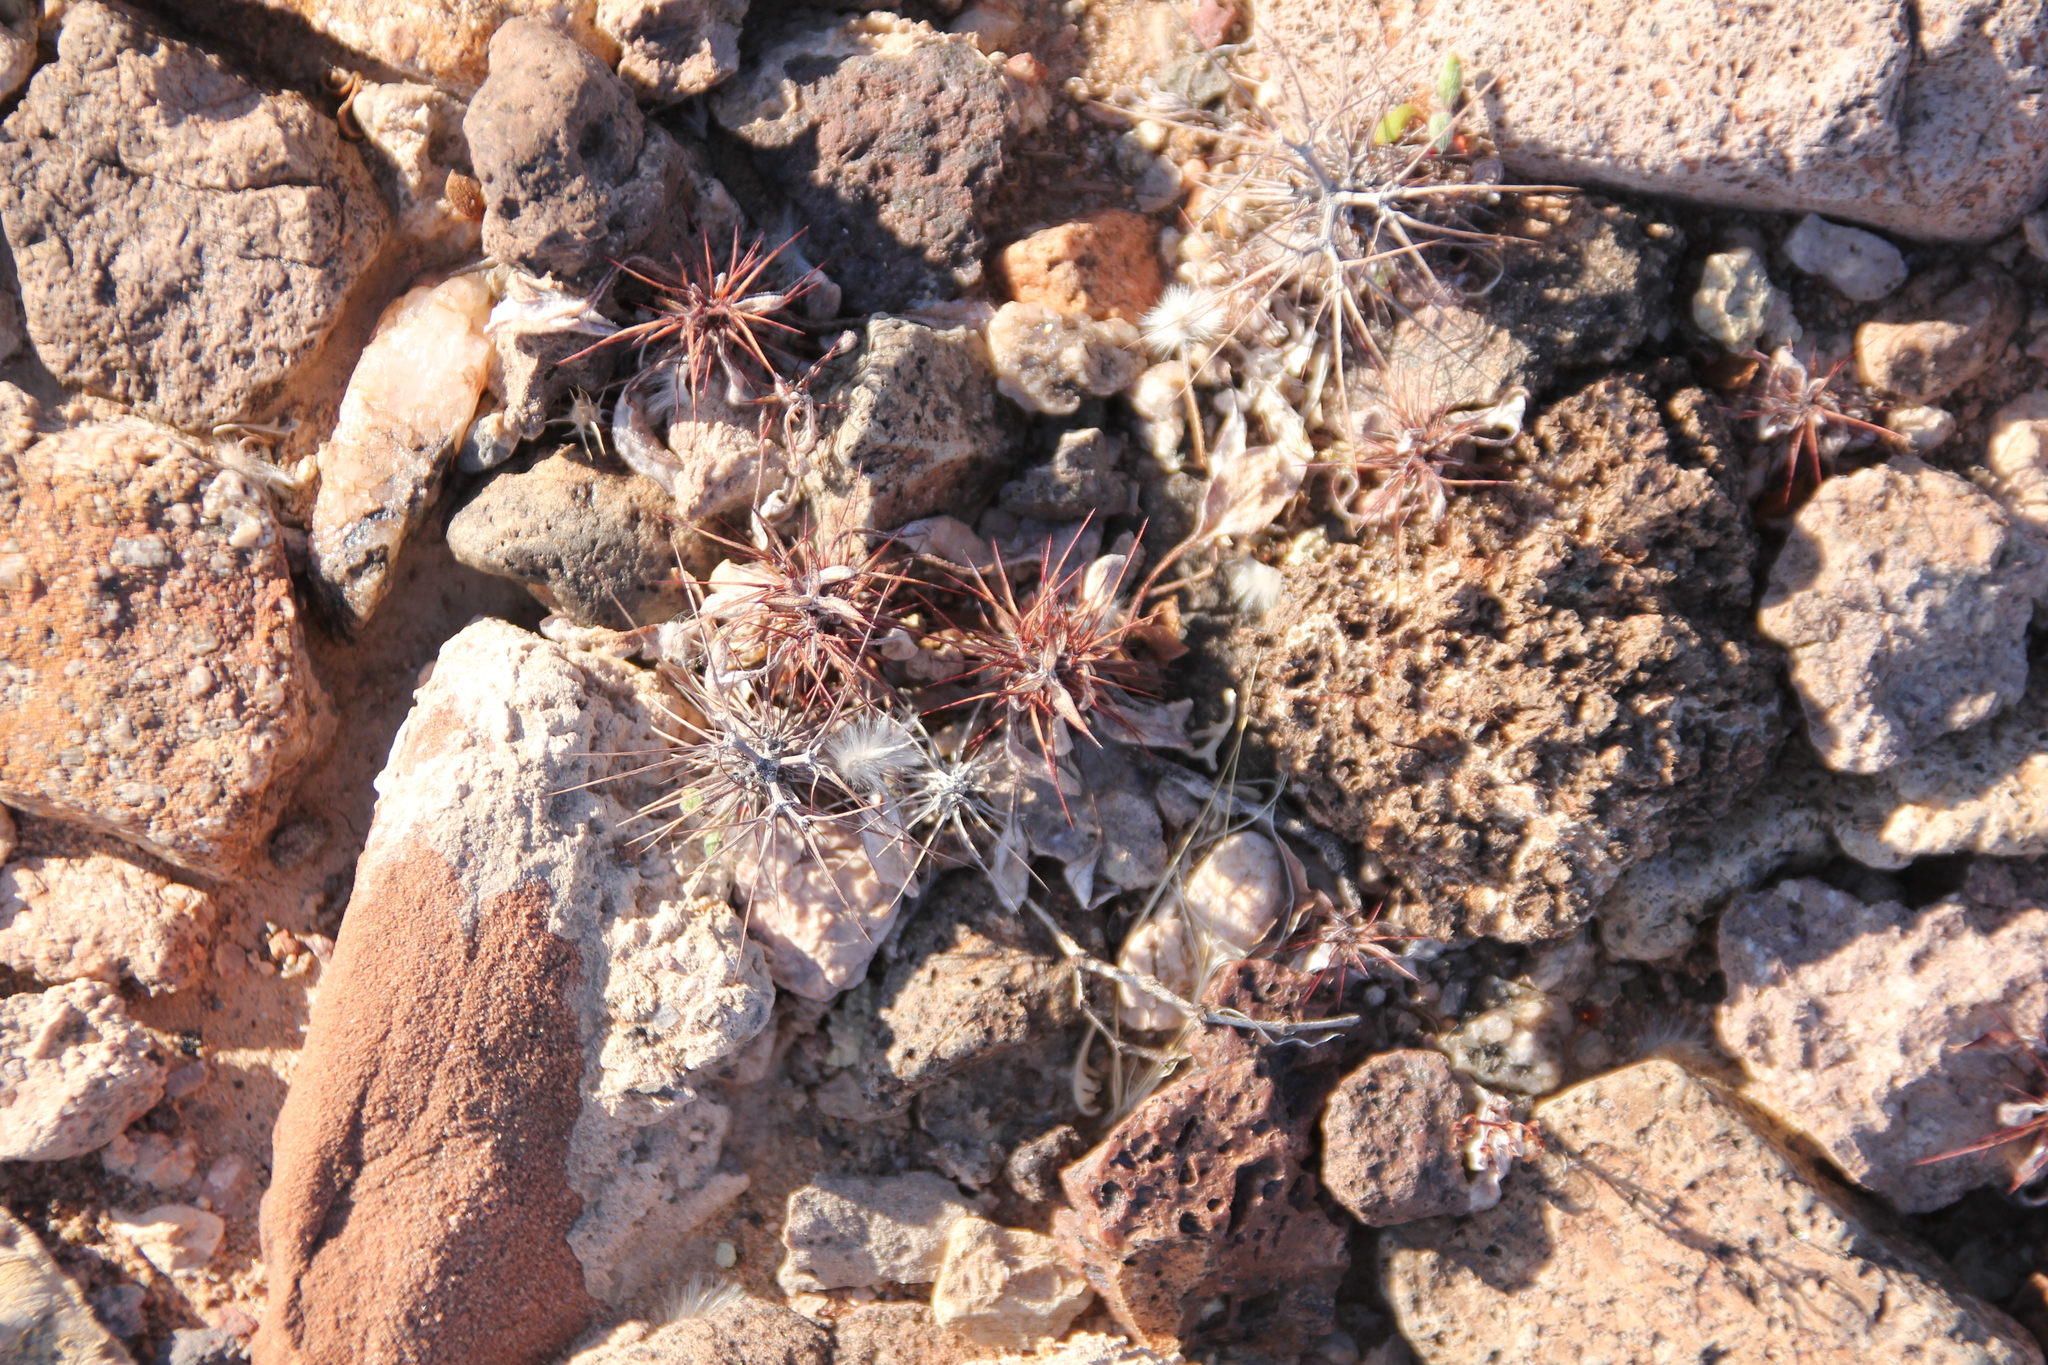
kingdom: Plantae
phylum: Tracheophyta
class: Magnoliopsida
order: Caryophyllales
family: Polygonaceae
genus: Chorizanthe
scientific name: Chorizanthe rigida
